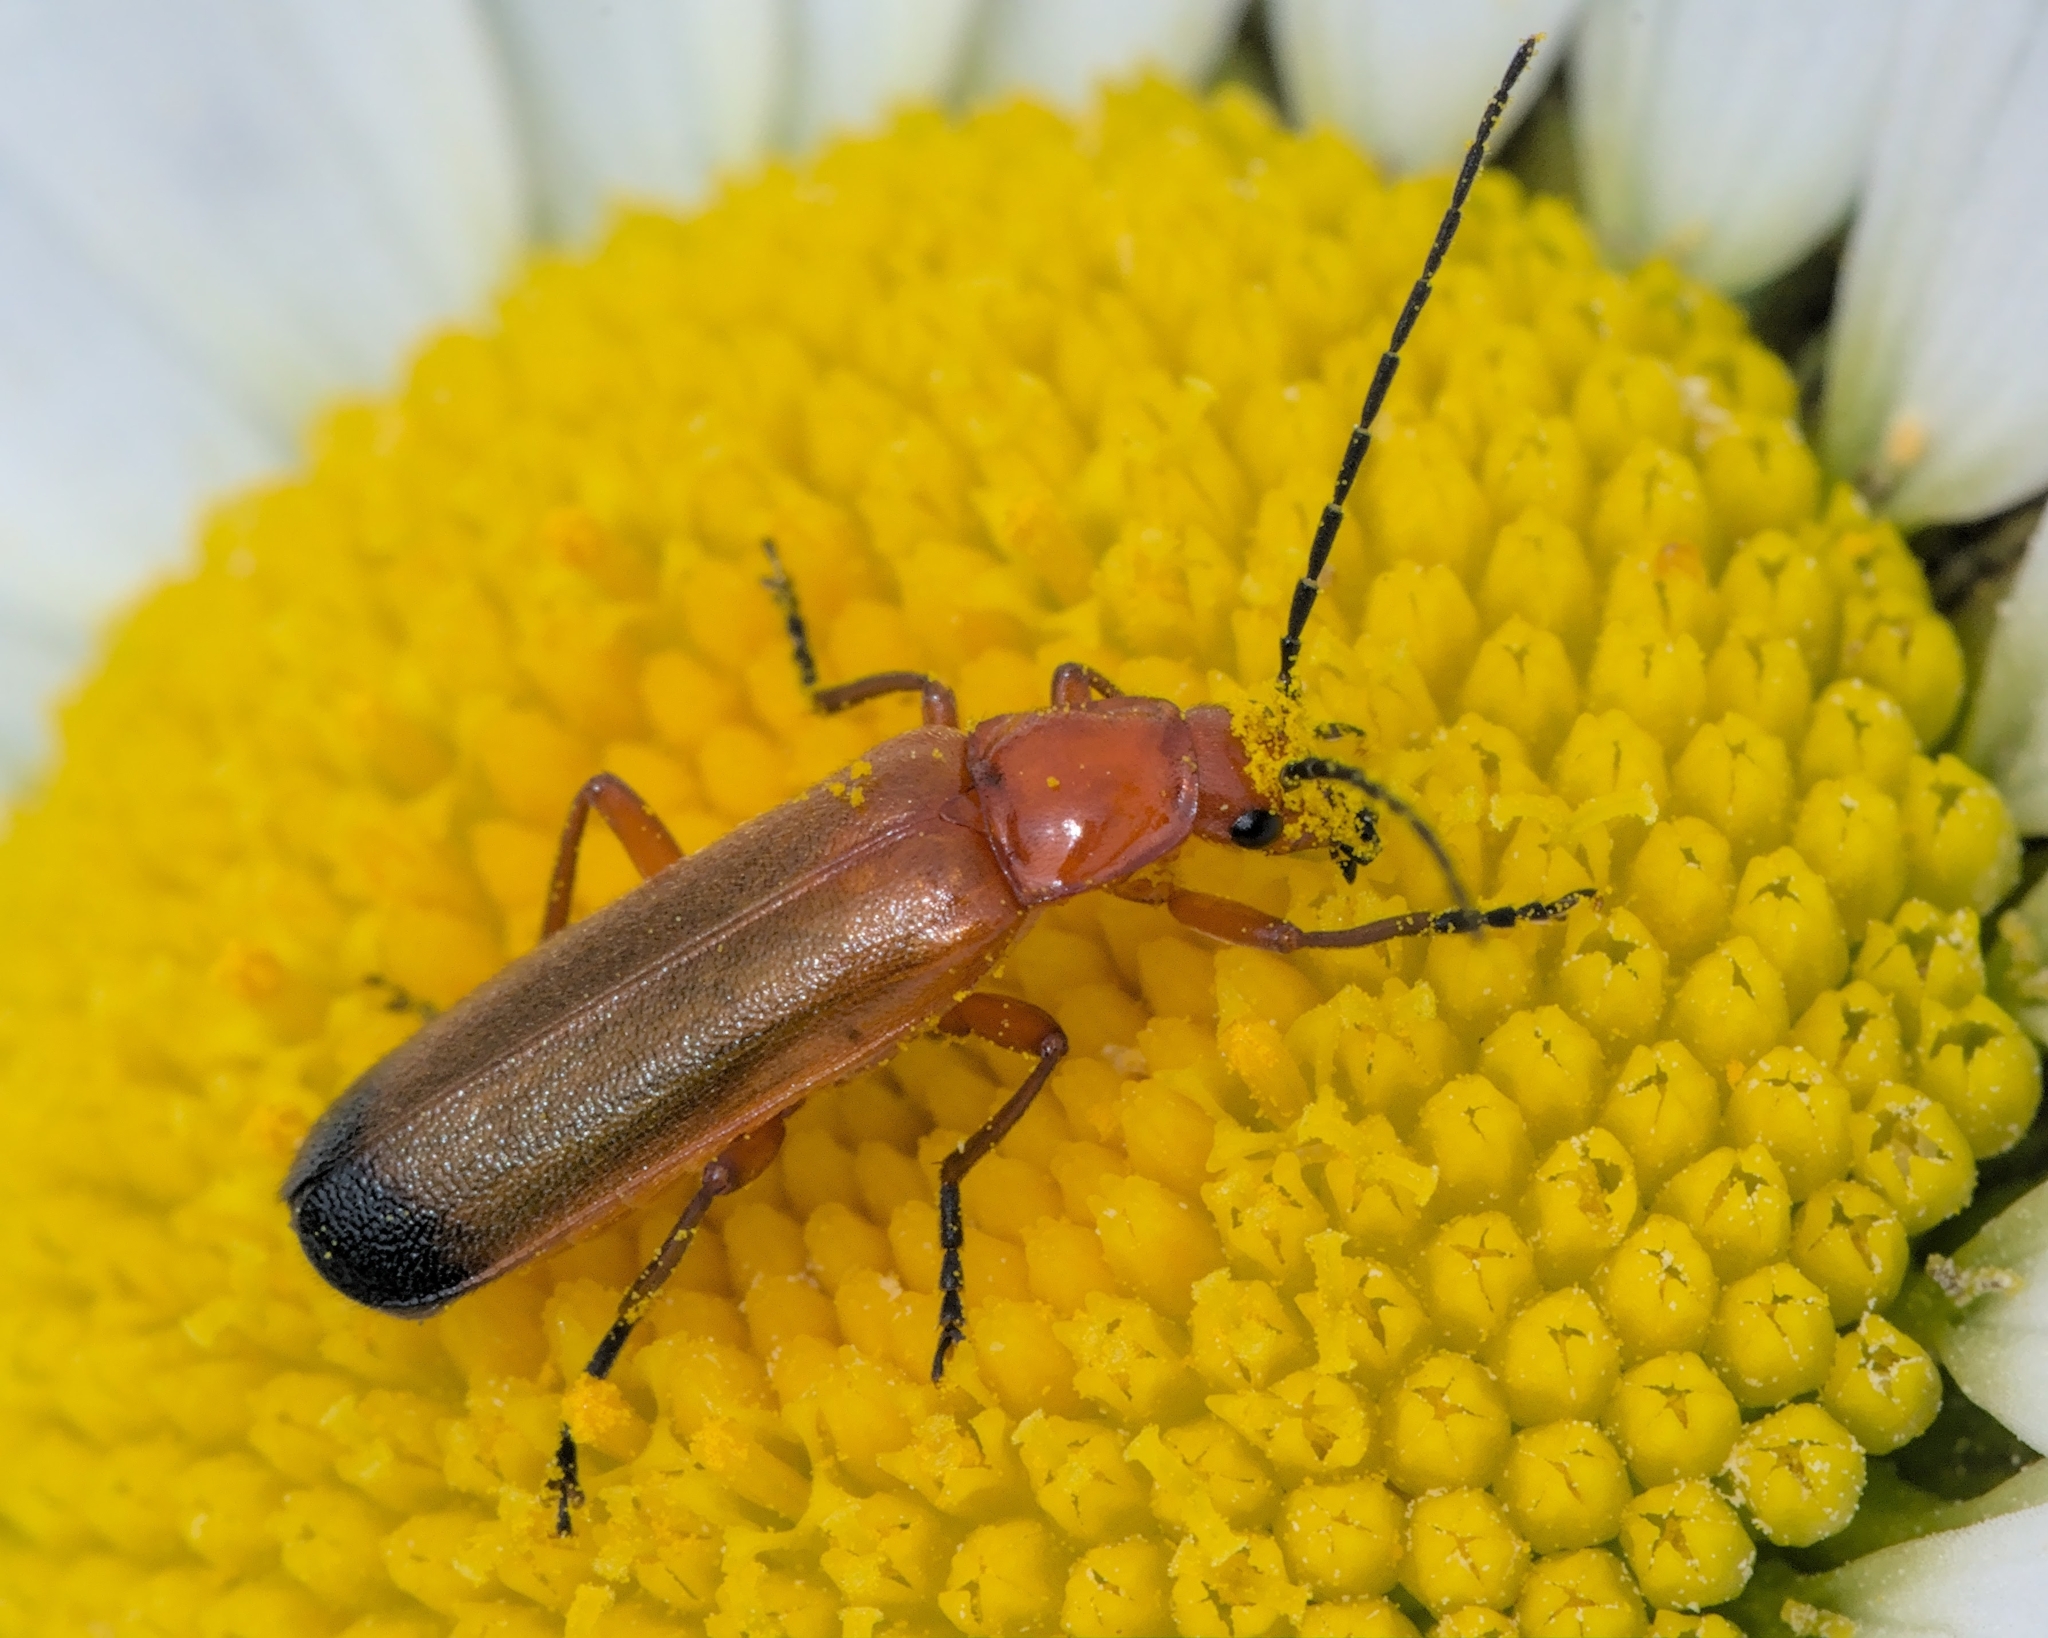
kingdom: Animalia
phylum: Arthropoda
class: Insecta
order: Coleoptera
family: Cantharidae
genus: Rhagonycha
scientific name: Rhagonycha fulva
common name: Common red soldier beetle
